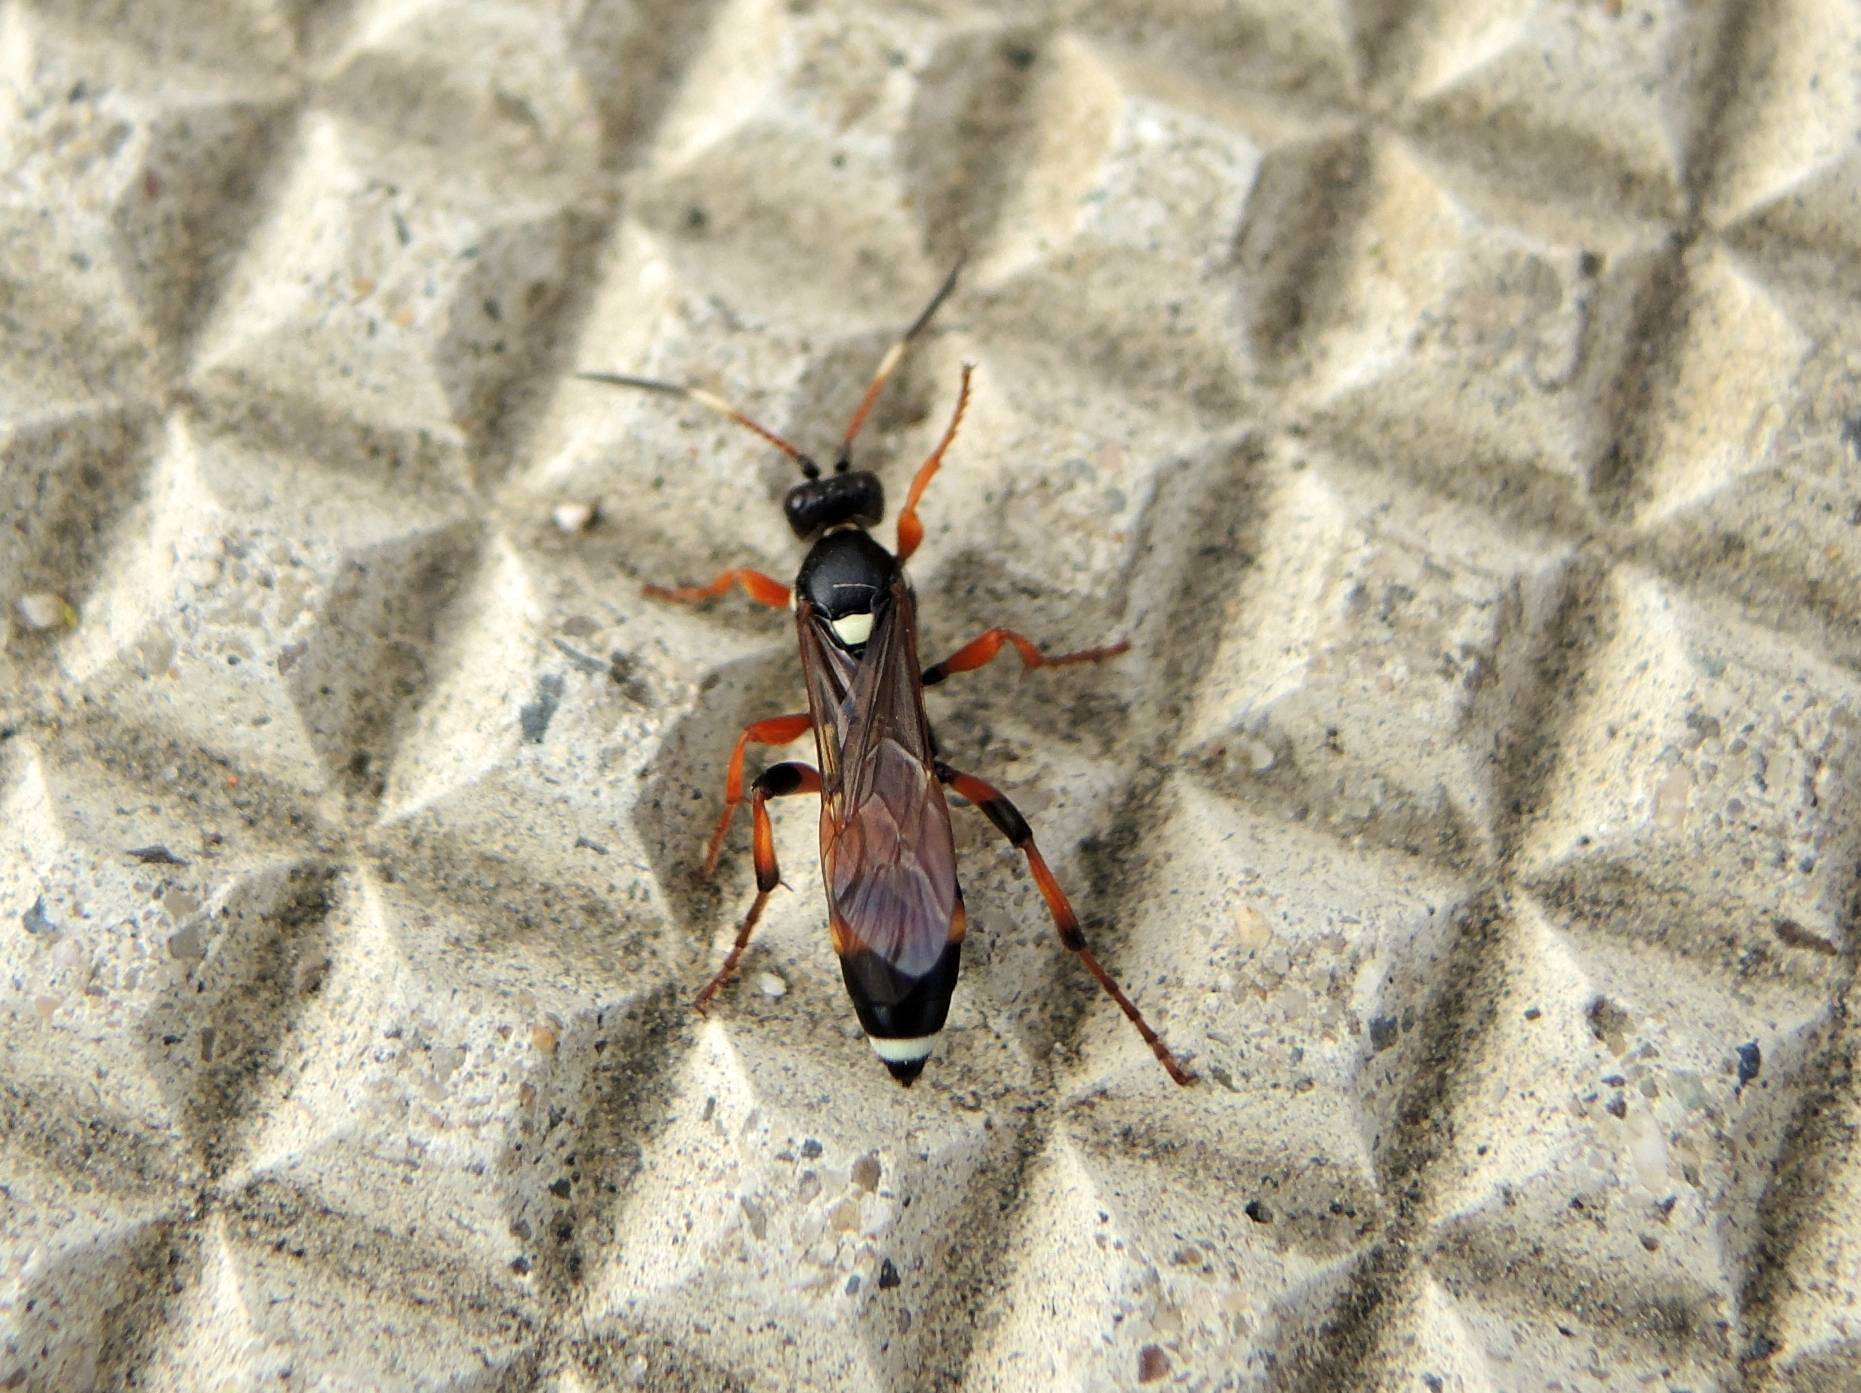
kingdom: Animalia
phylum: Arthropoda
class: Insecta
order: Hymenoptera
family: Ichneumonidae
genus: Ichneumon
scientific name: Ichneumon sarcitorius
